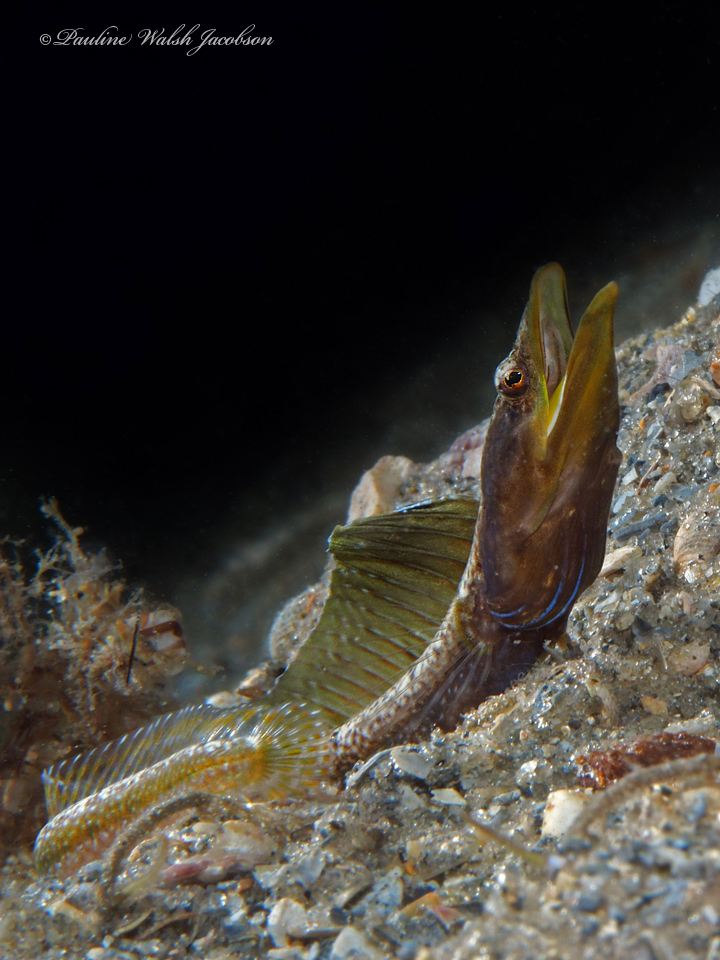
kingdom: Animalia
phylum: Chordata
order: Perciformes
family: Chaenopsidae
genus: Chaenopsis
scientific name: Chaenopsis ocellata
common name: Bluethroat pikeblenny
